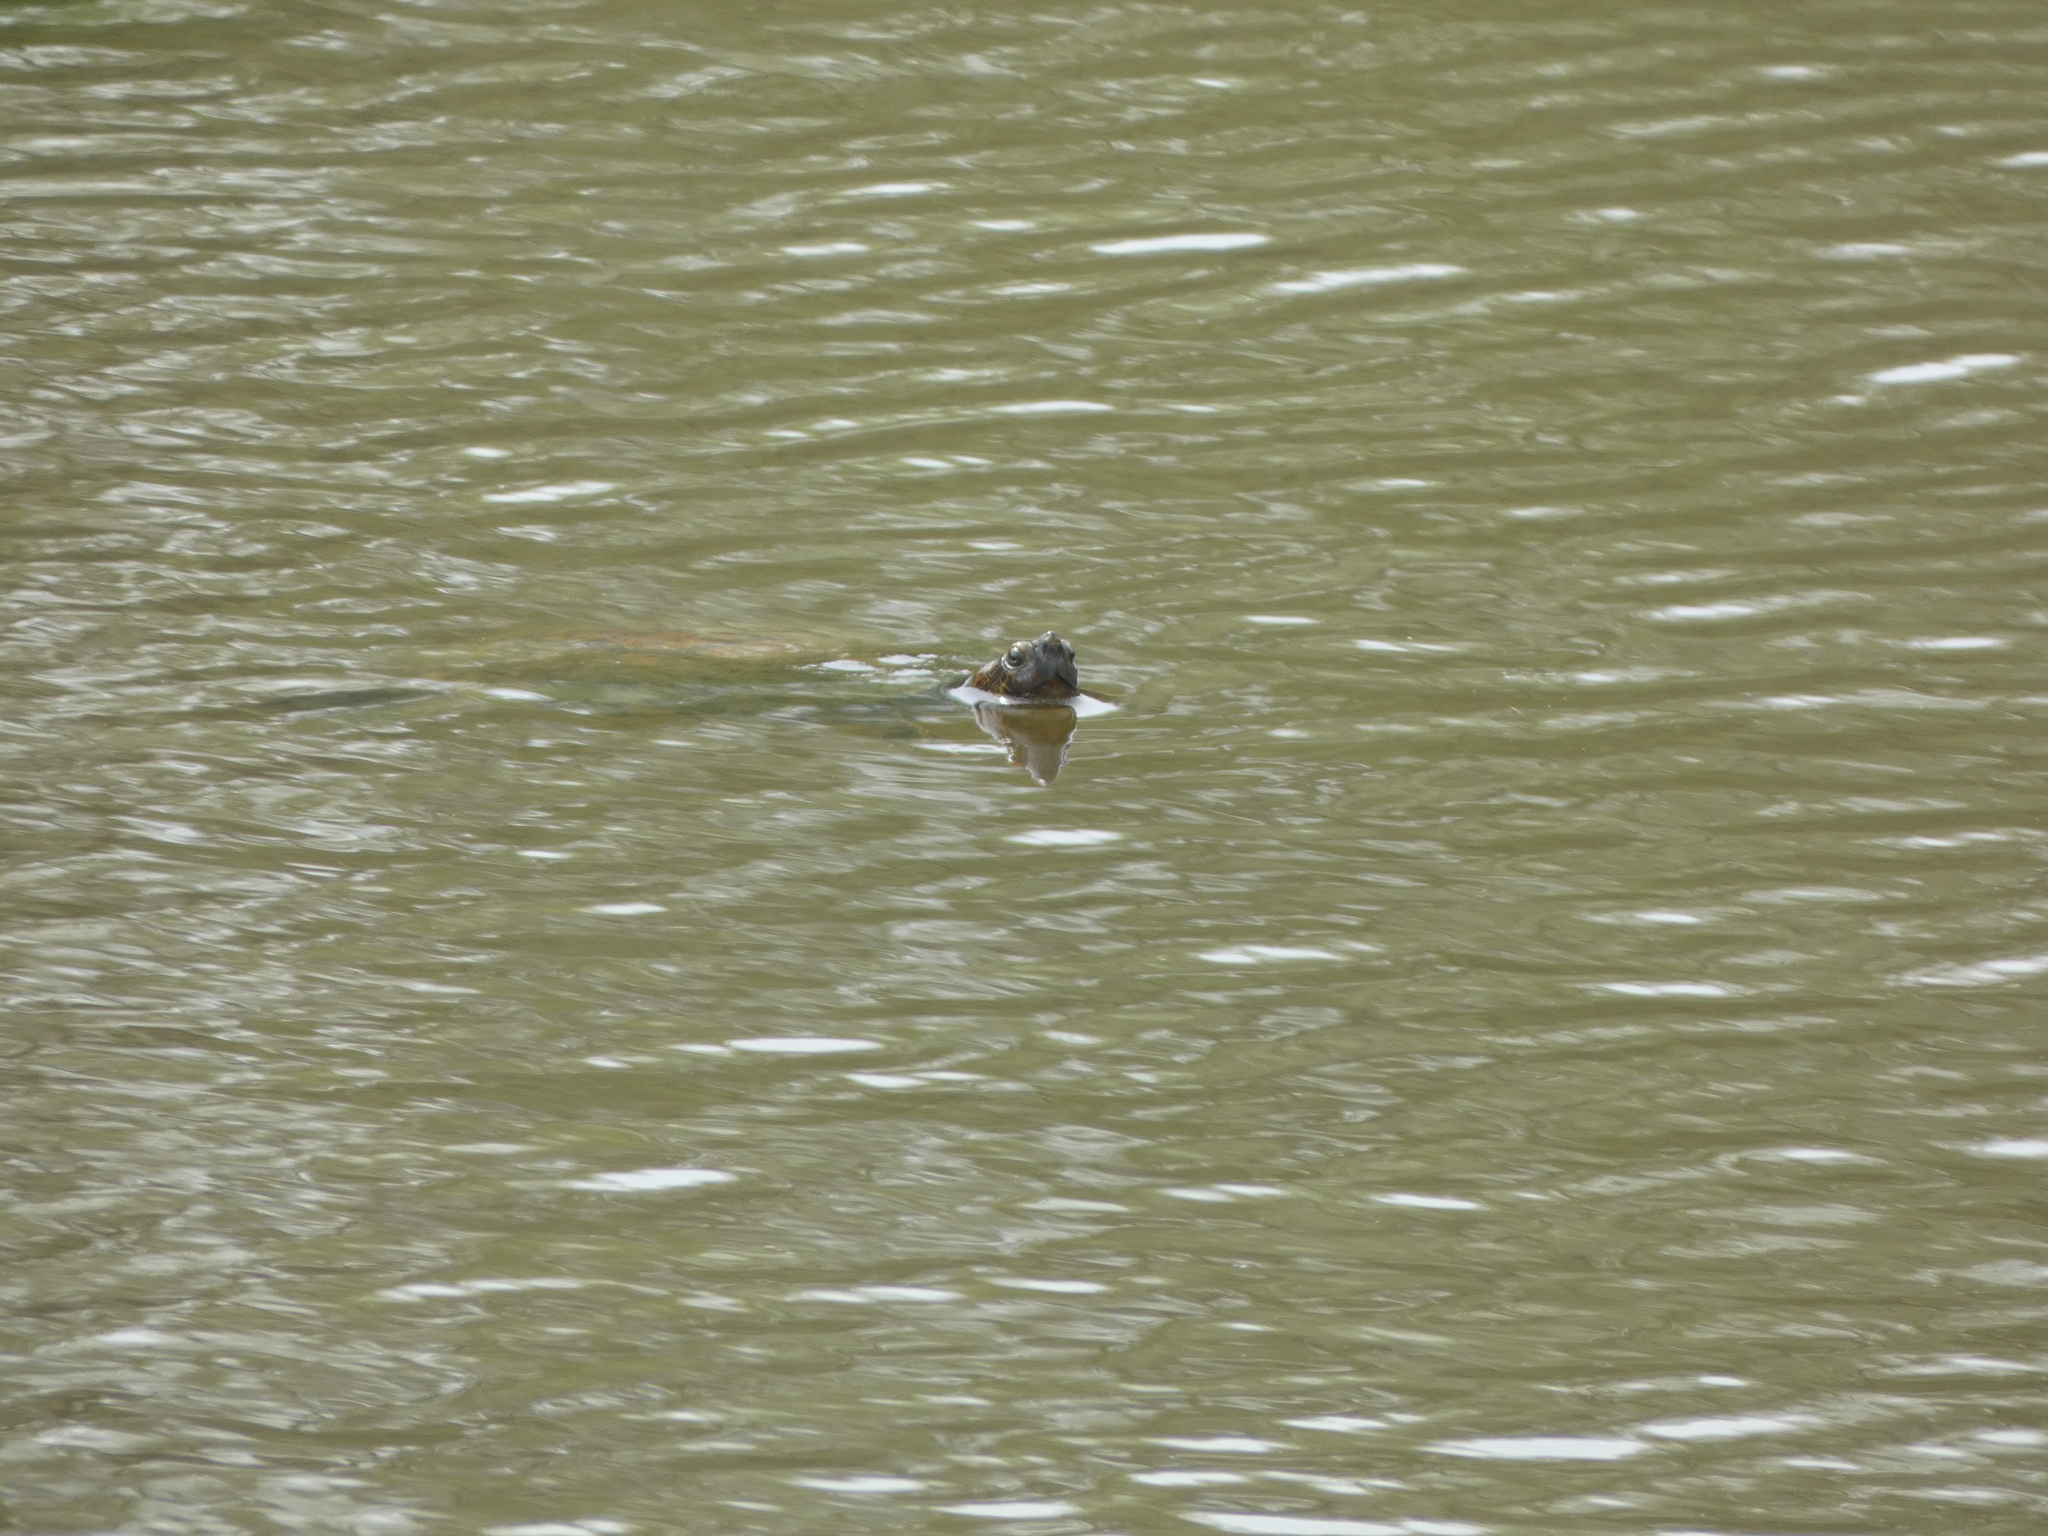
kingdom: Animalia
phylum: Chordata
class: Testudines
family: Emydidae
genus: Trachemys
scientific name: Trachemys scripta
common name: Slider
